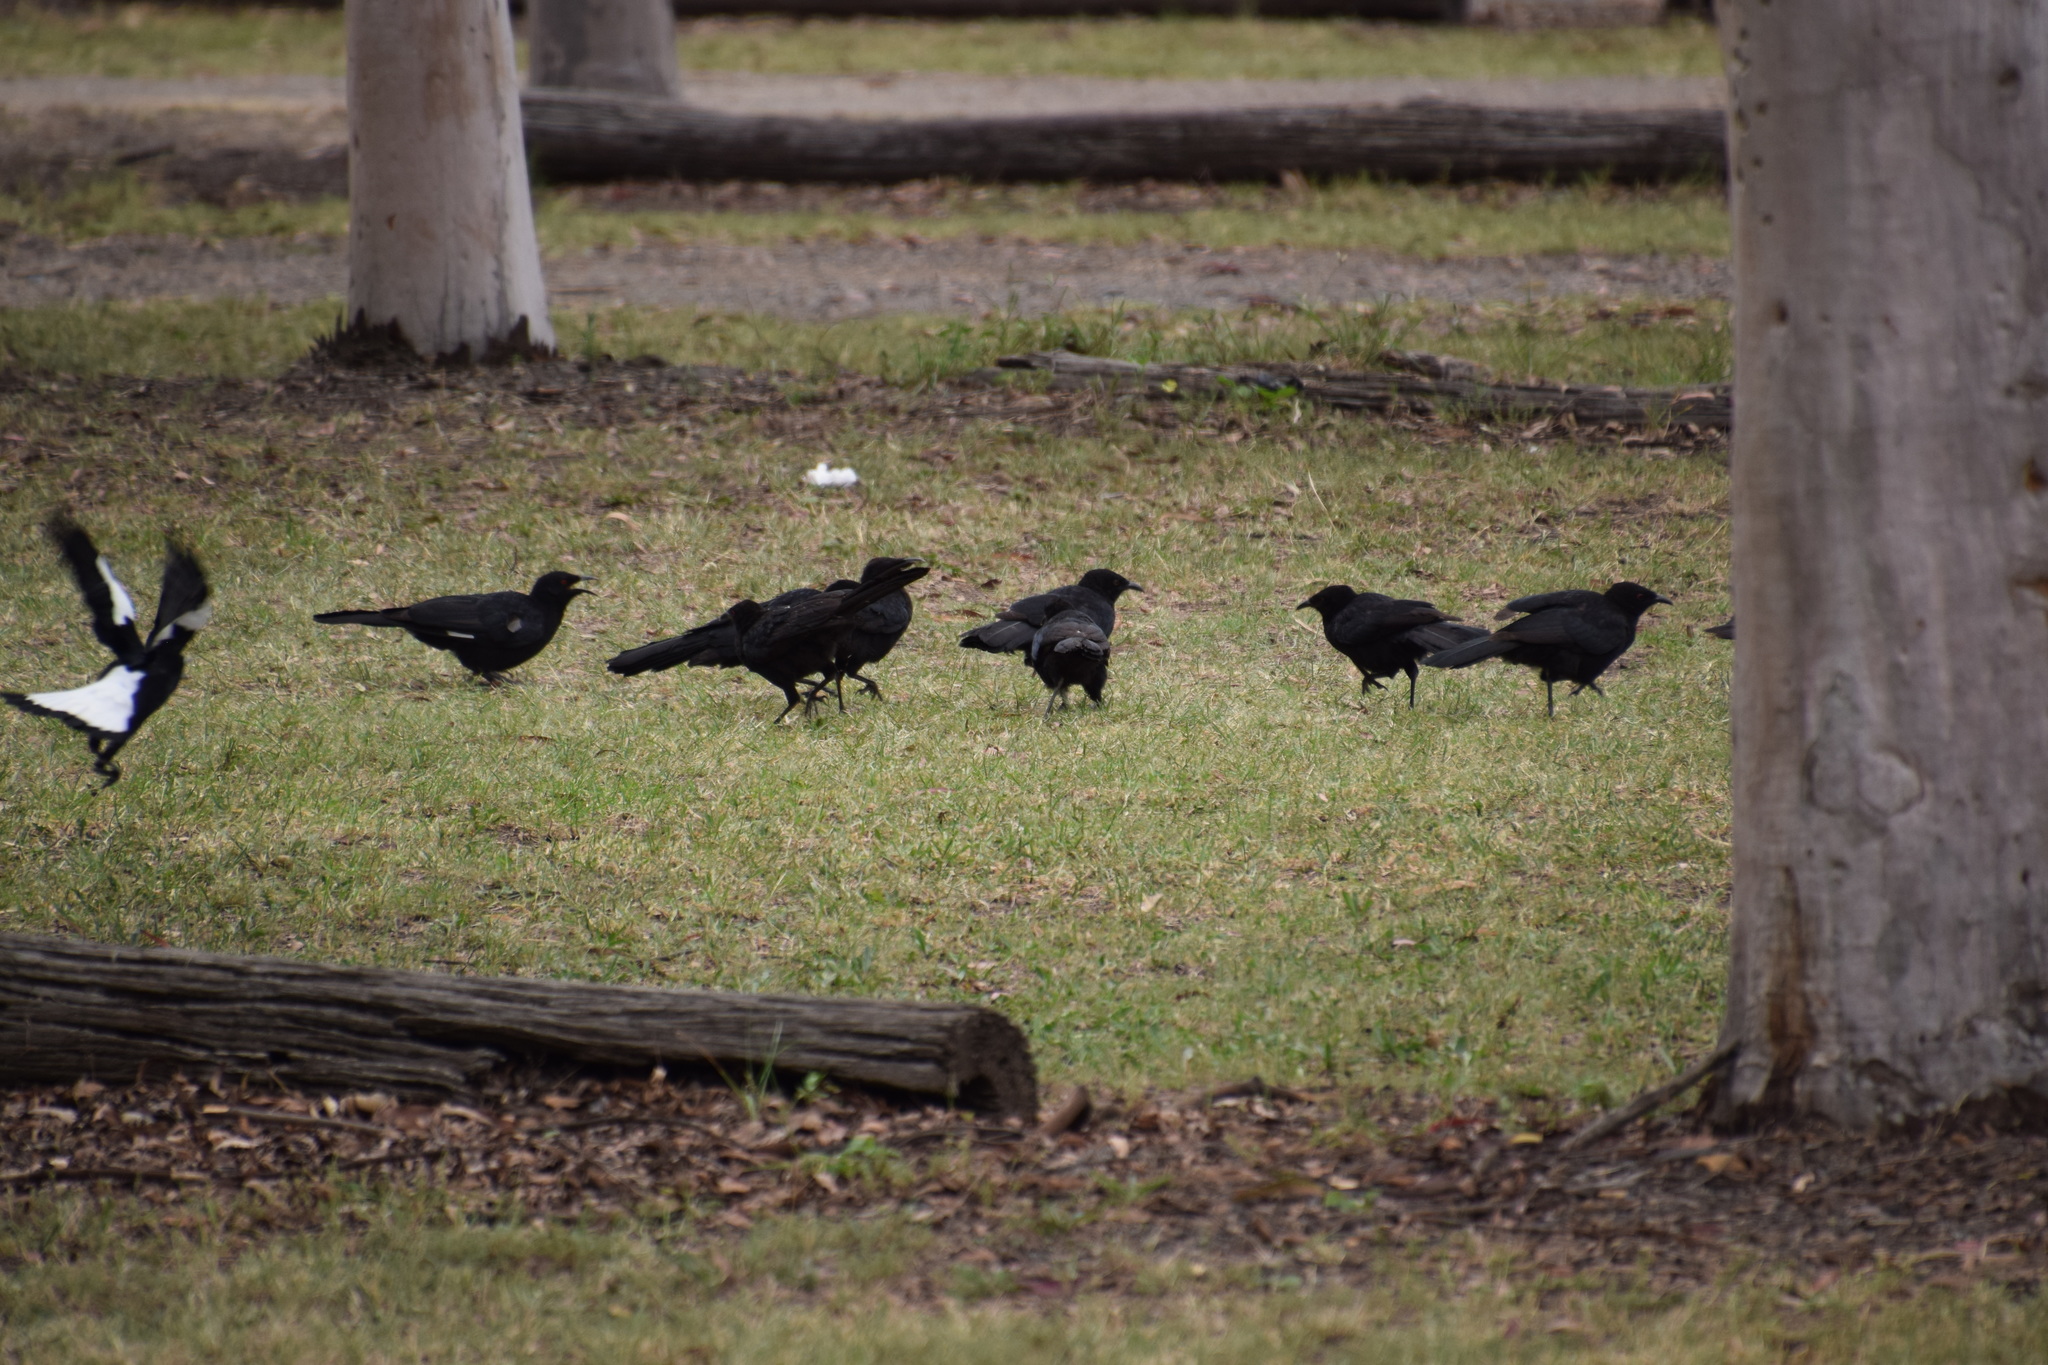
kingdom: Animalia
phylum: Chordata
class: Aves
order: Passeriformes
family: Corcoracidae
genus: Corcorax
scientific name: Corcorax melanoramphos
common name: White-winged chough
